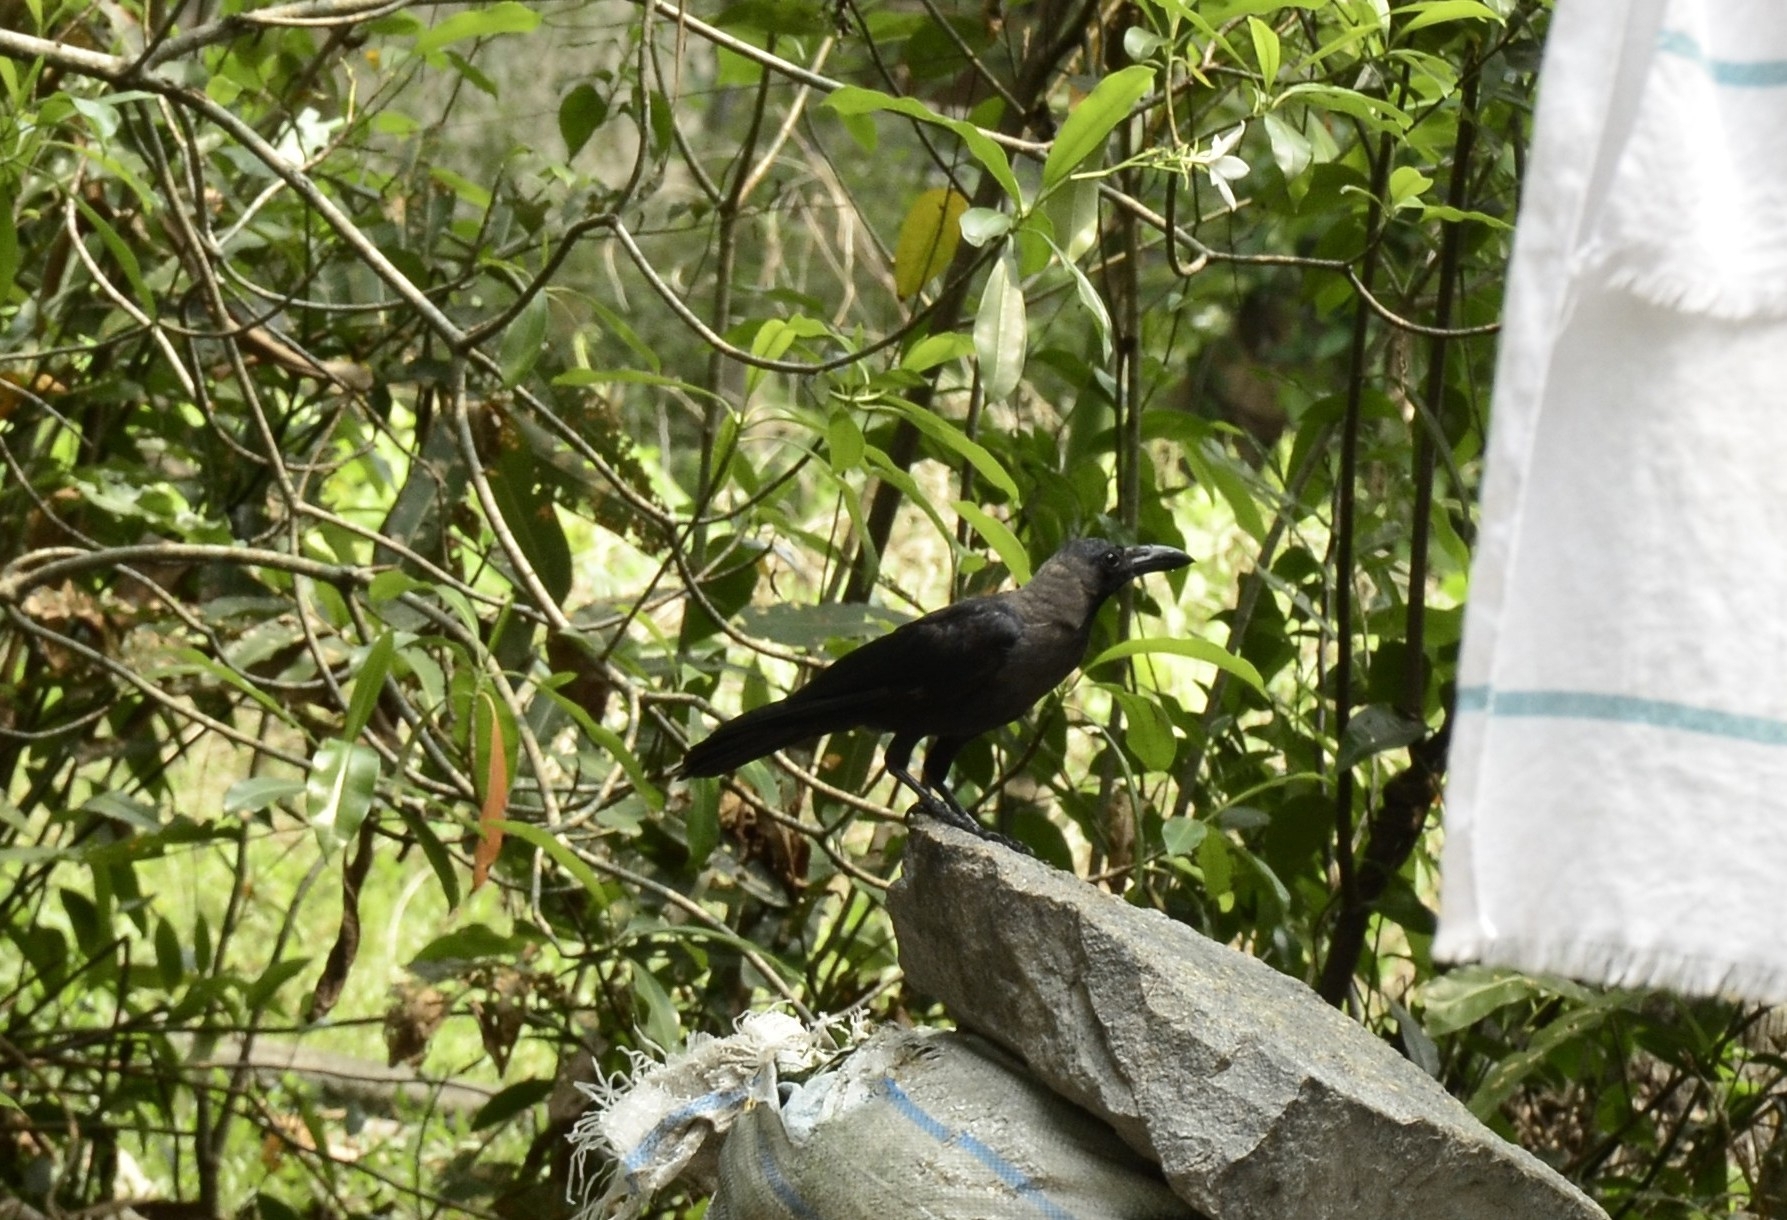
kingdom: Animalia
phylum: Chordata
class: Aves
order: Passeriformes
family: Corvidae
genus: Corvus
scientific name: Corvus splendens
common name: House crow
